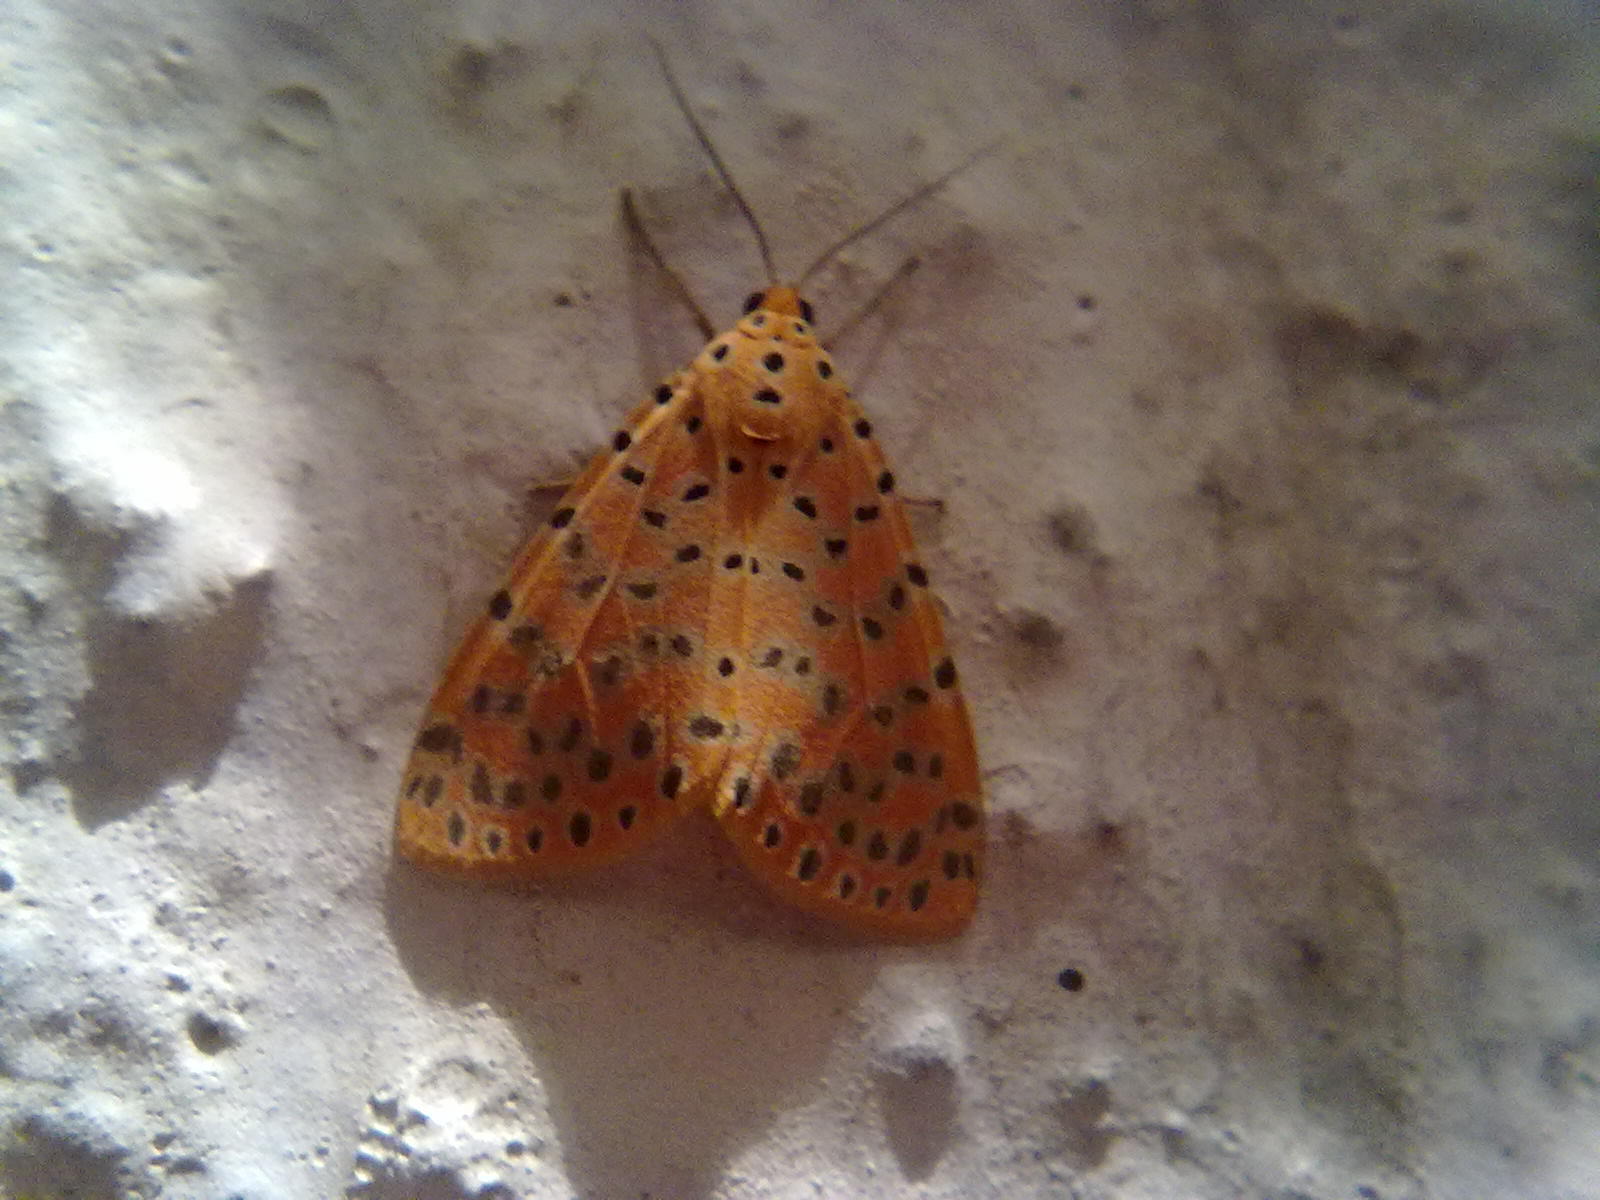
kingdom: Animalia
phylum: Arthropoda
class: Insecta
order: Lepidoptera
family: Erebidae
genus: Argina
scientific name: Argina astrea
